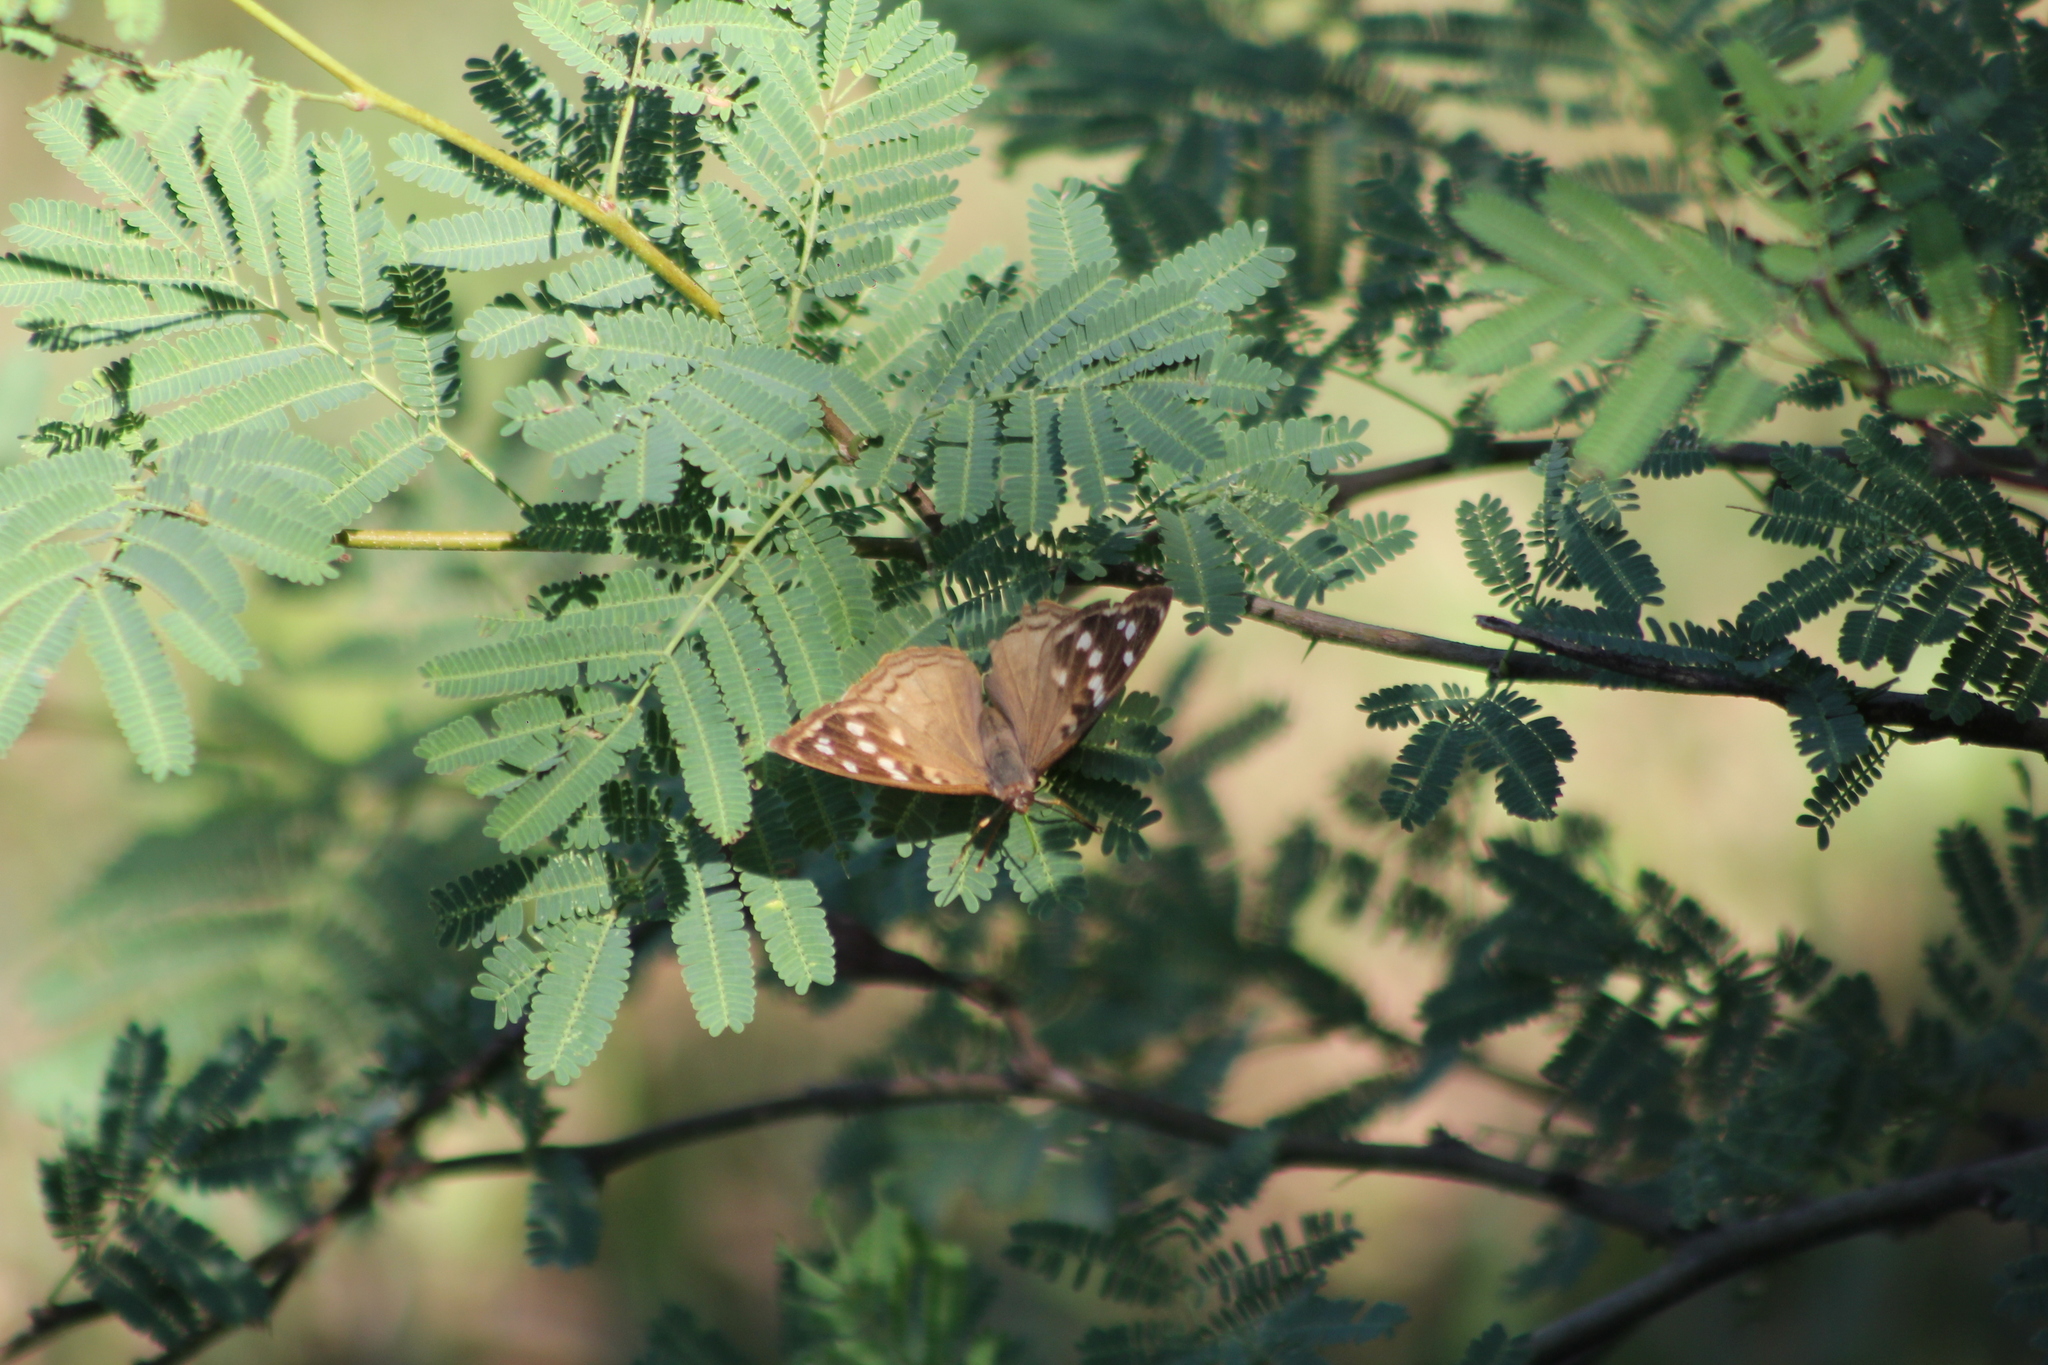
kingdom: Animalia
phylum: Arthropoda
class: Insecta
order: Lepidoptera
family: Nymphalidae
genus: Doxocopa
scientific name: Doxocopa kallina
